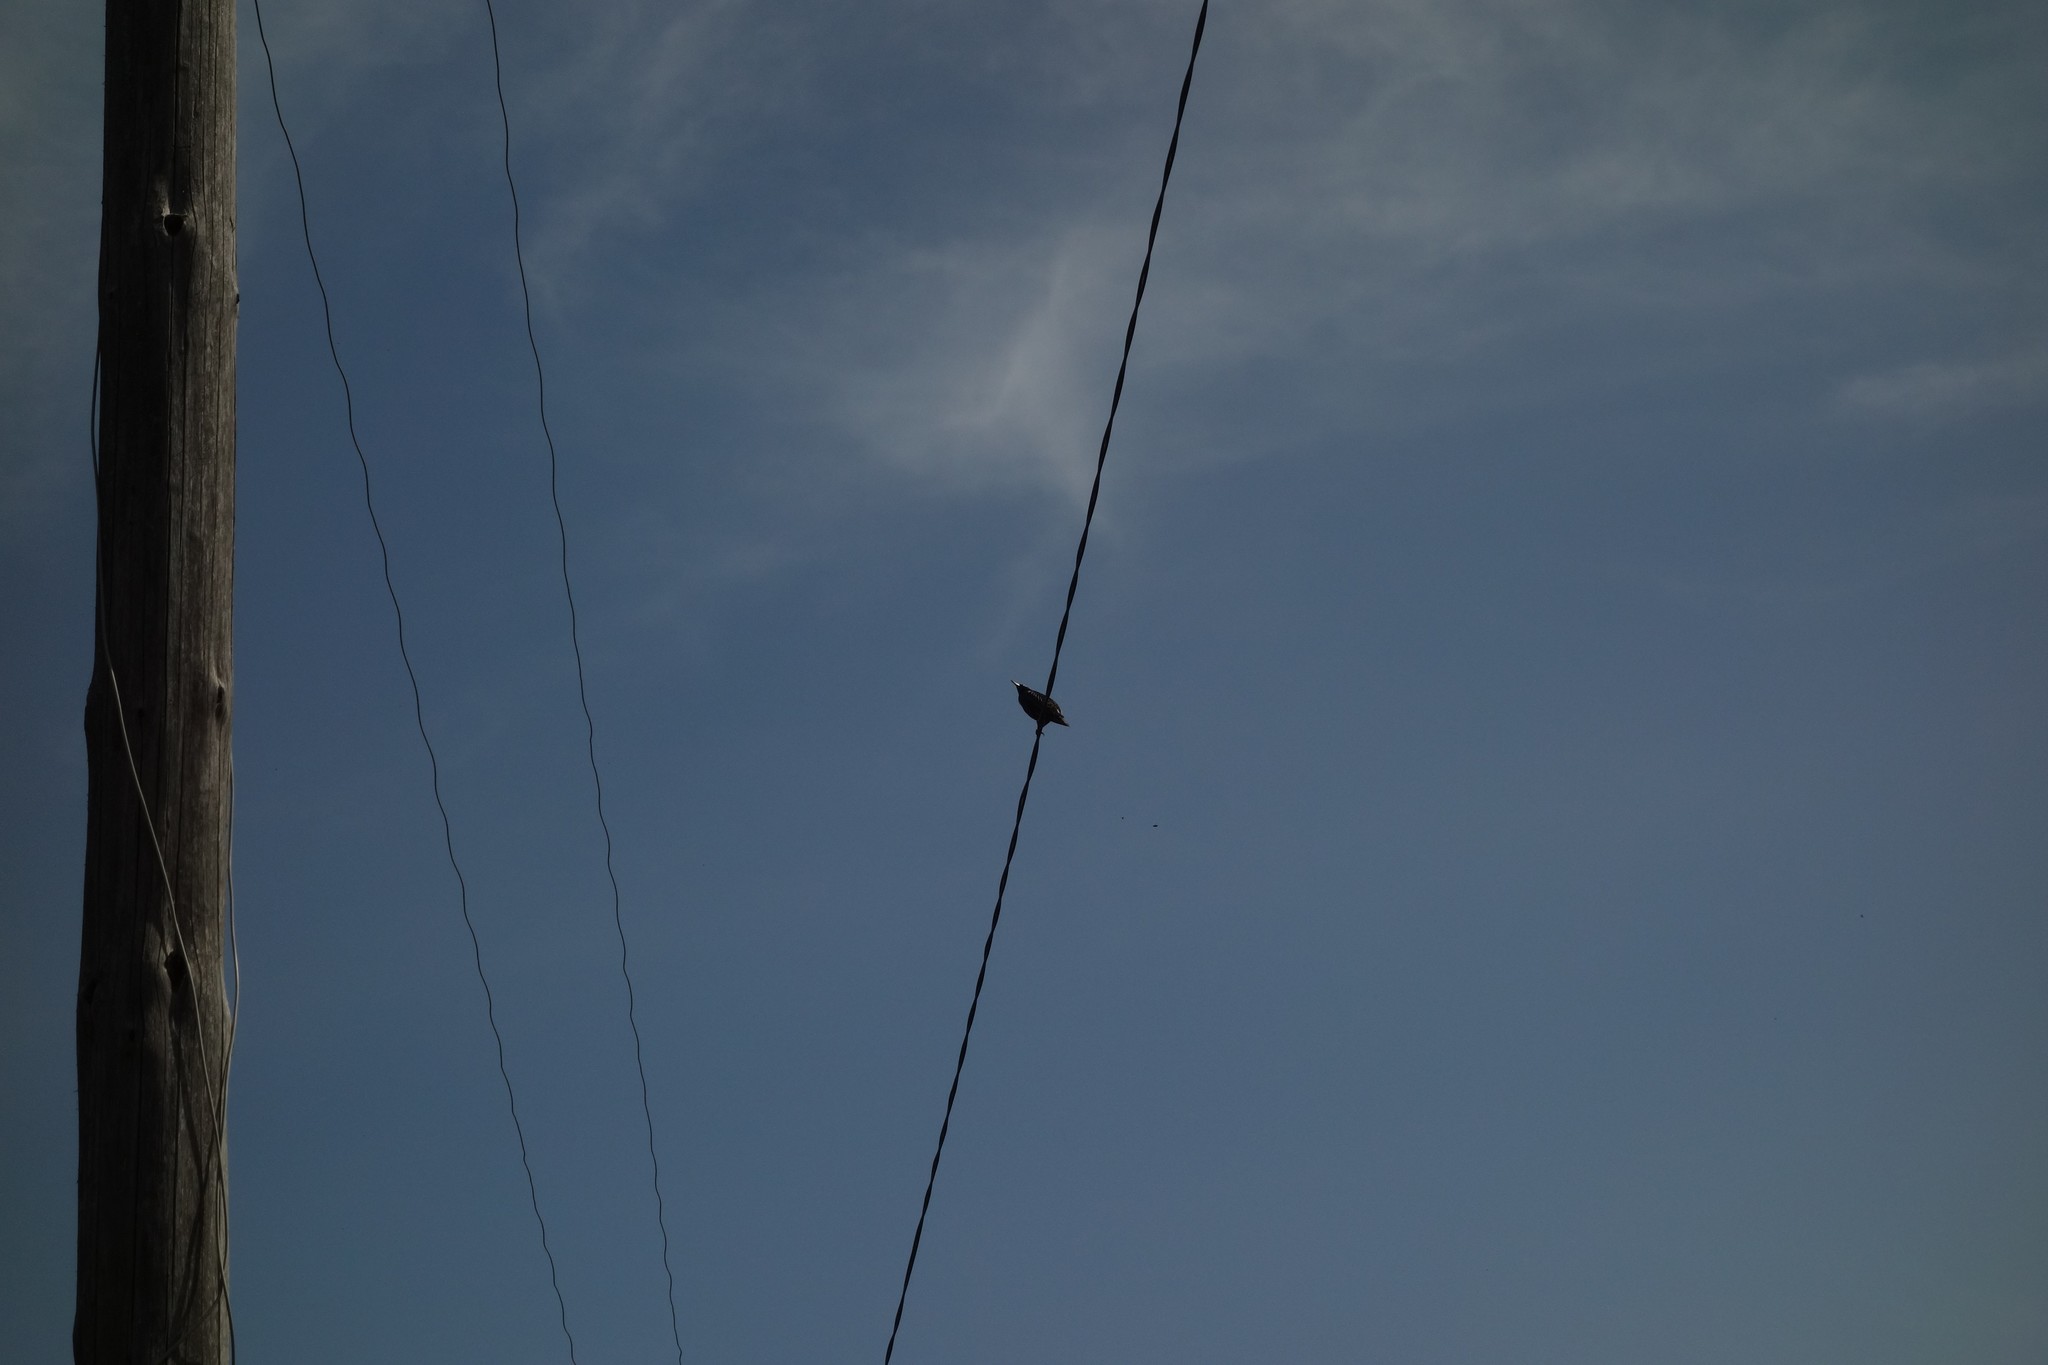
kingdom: Animalia
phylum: Chordata
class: Aves
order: Passeriformes
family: Sturnidae
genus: Sturnus
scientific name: Sturnus vulgaris
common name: Common starling
